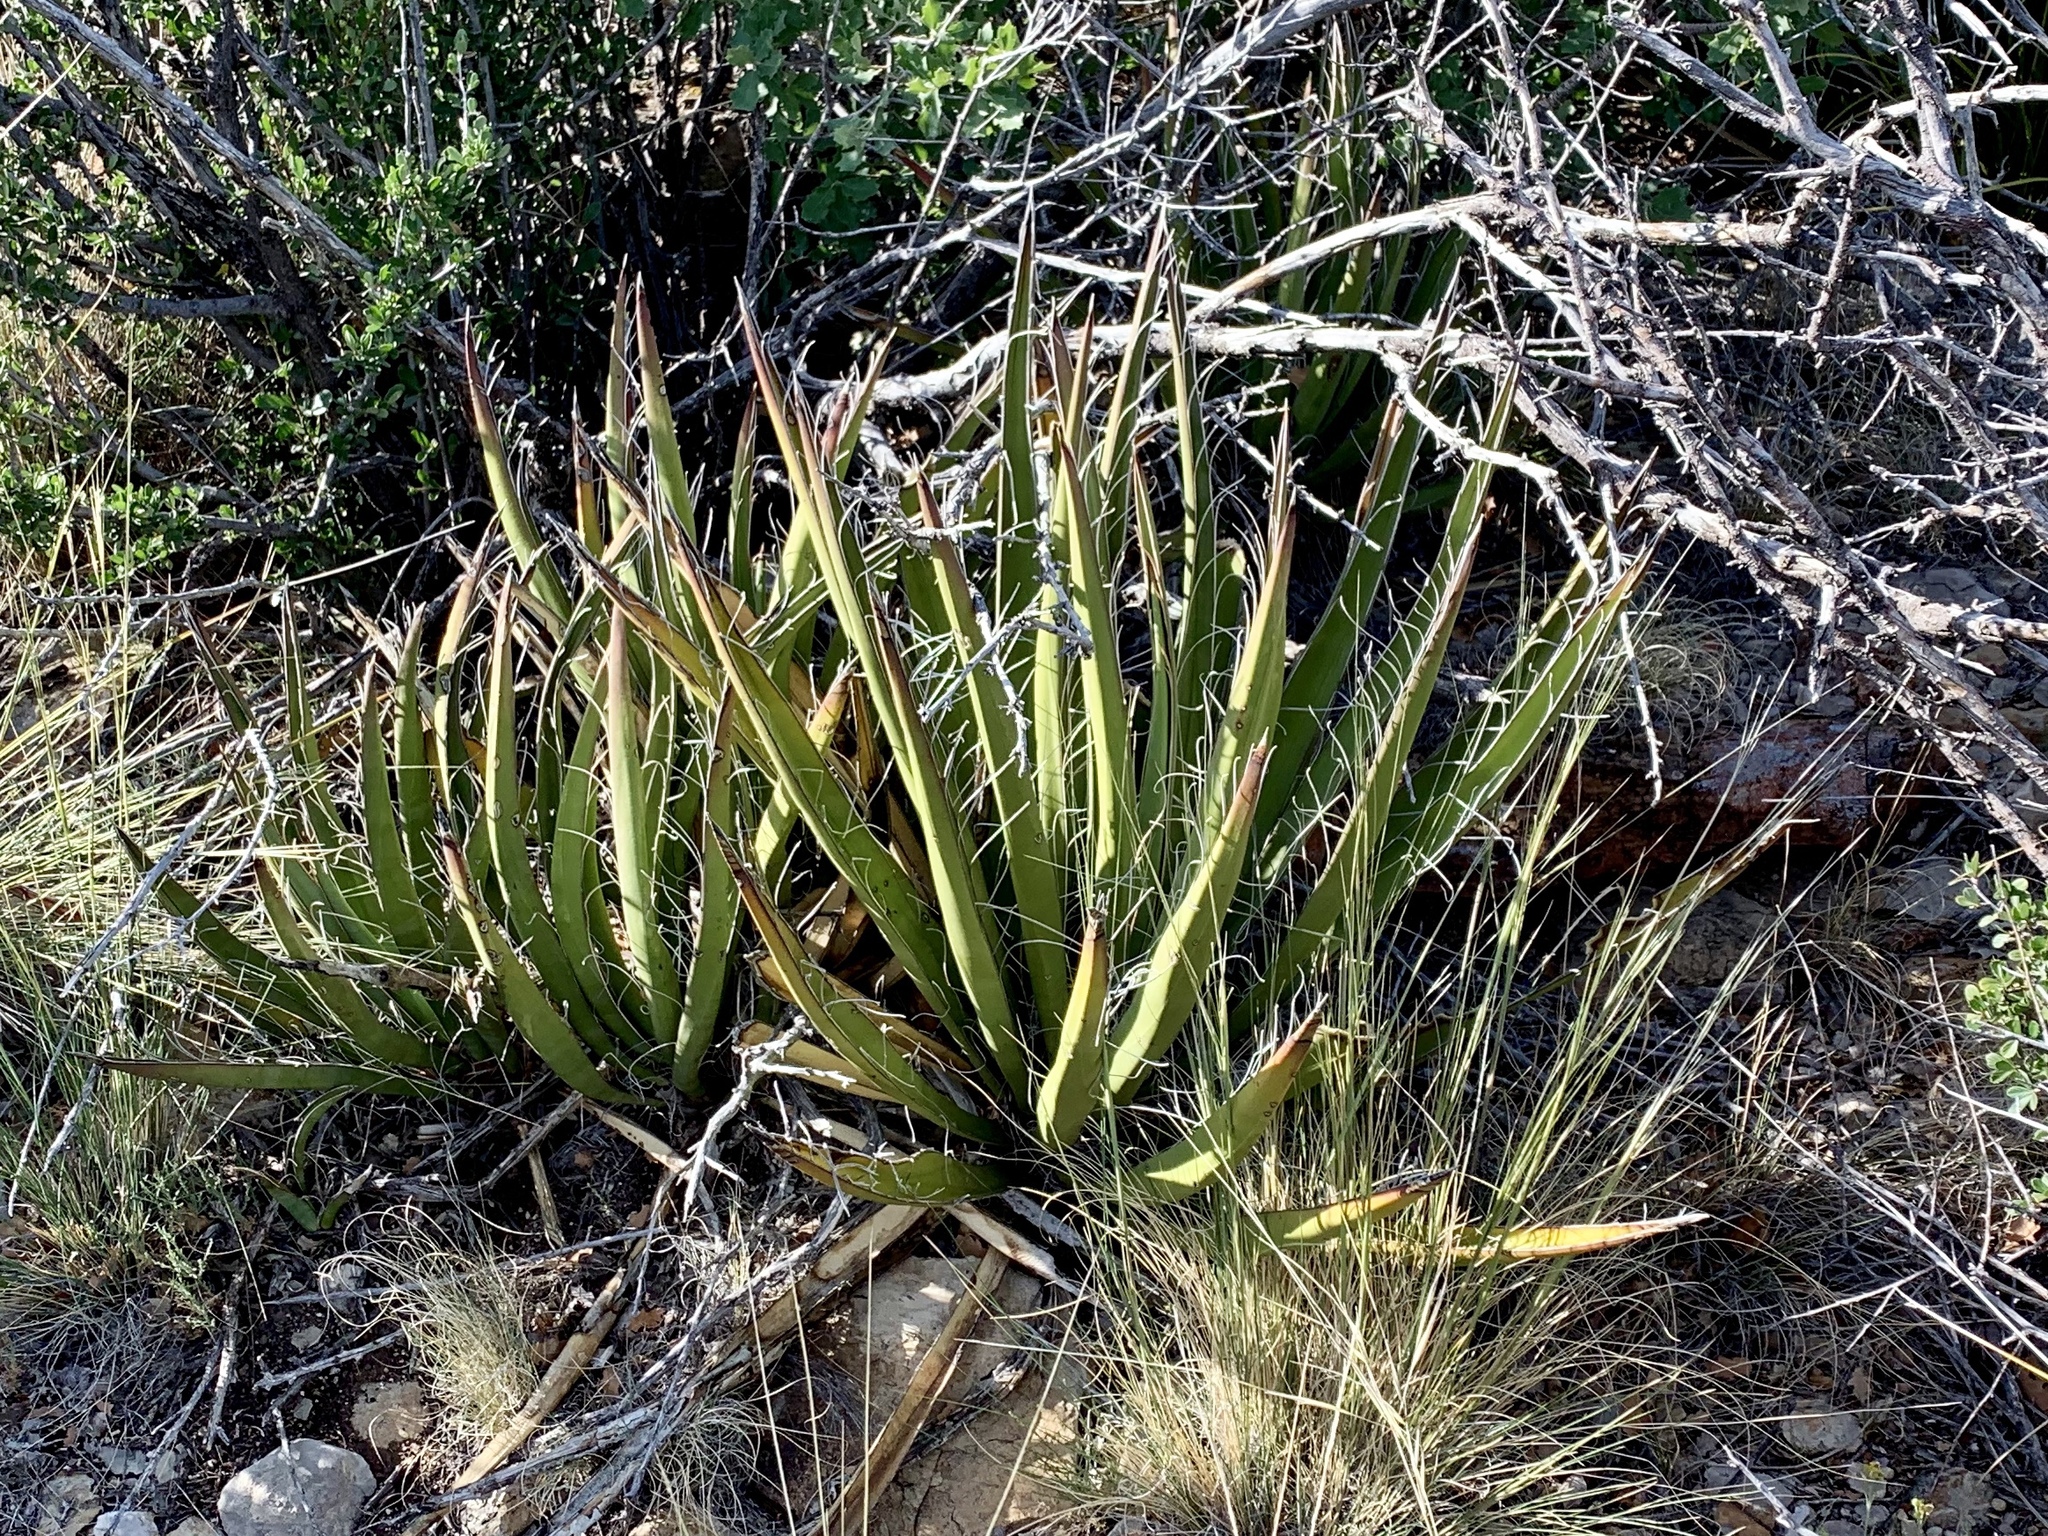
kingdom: Plantae
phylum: Tracheophyta
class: Liliopsida
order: Asparagales
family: Asparagaceae
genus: Yucca
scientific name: Yucca baccata
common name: Banana yucca
